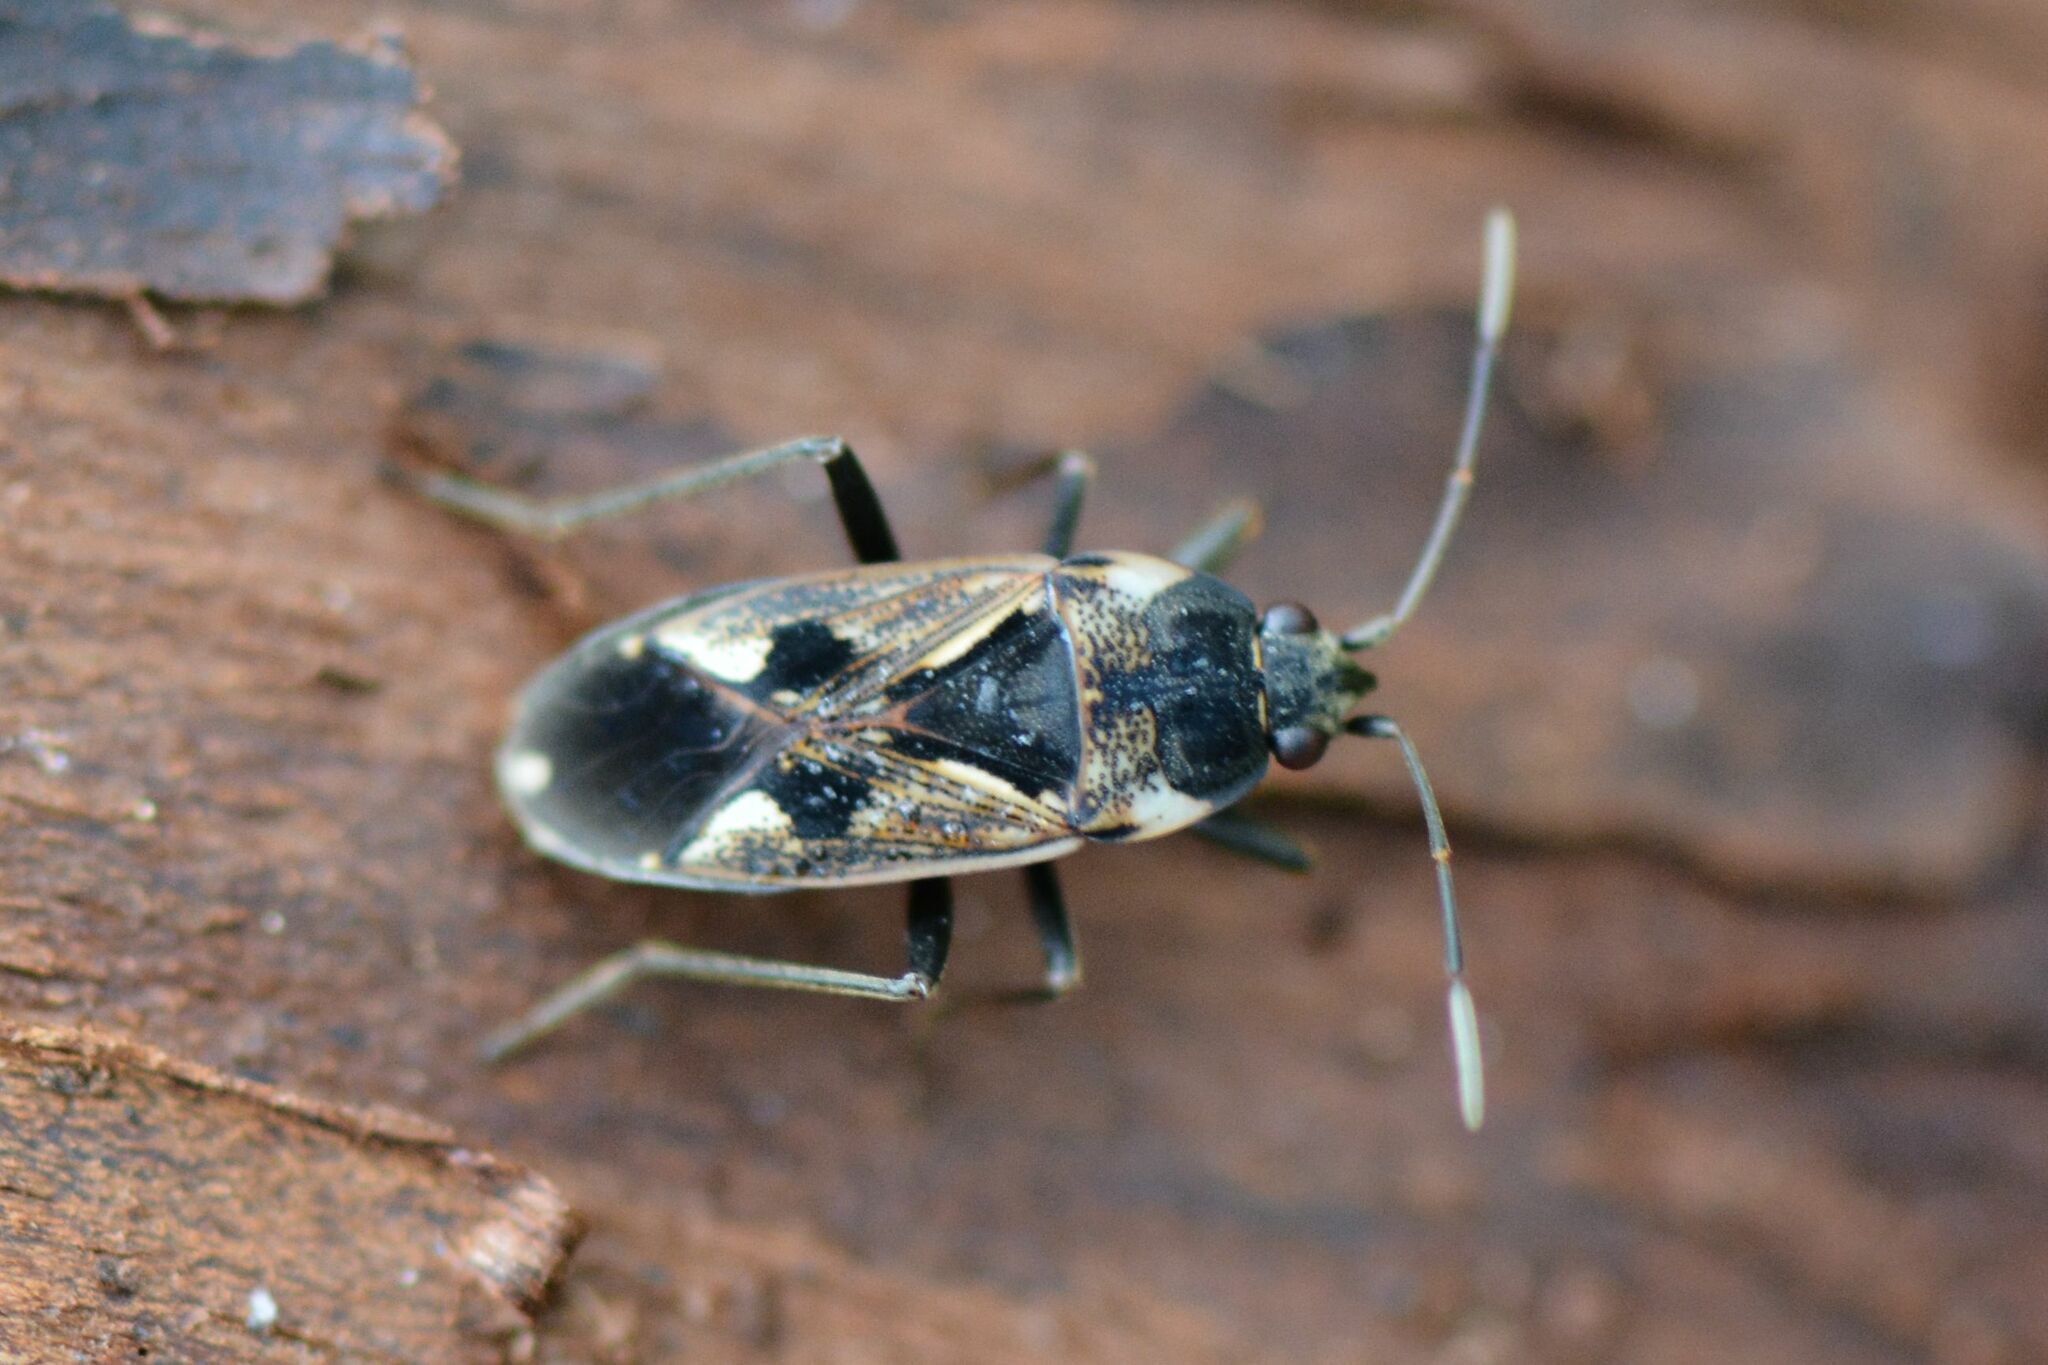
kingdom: Animalia
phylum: Arthropoda
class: Insecta
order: Hemiptera
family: Rhyparochromidae
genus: Rhyparochromus
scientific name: Rhyparochromus vulgaris
